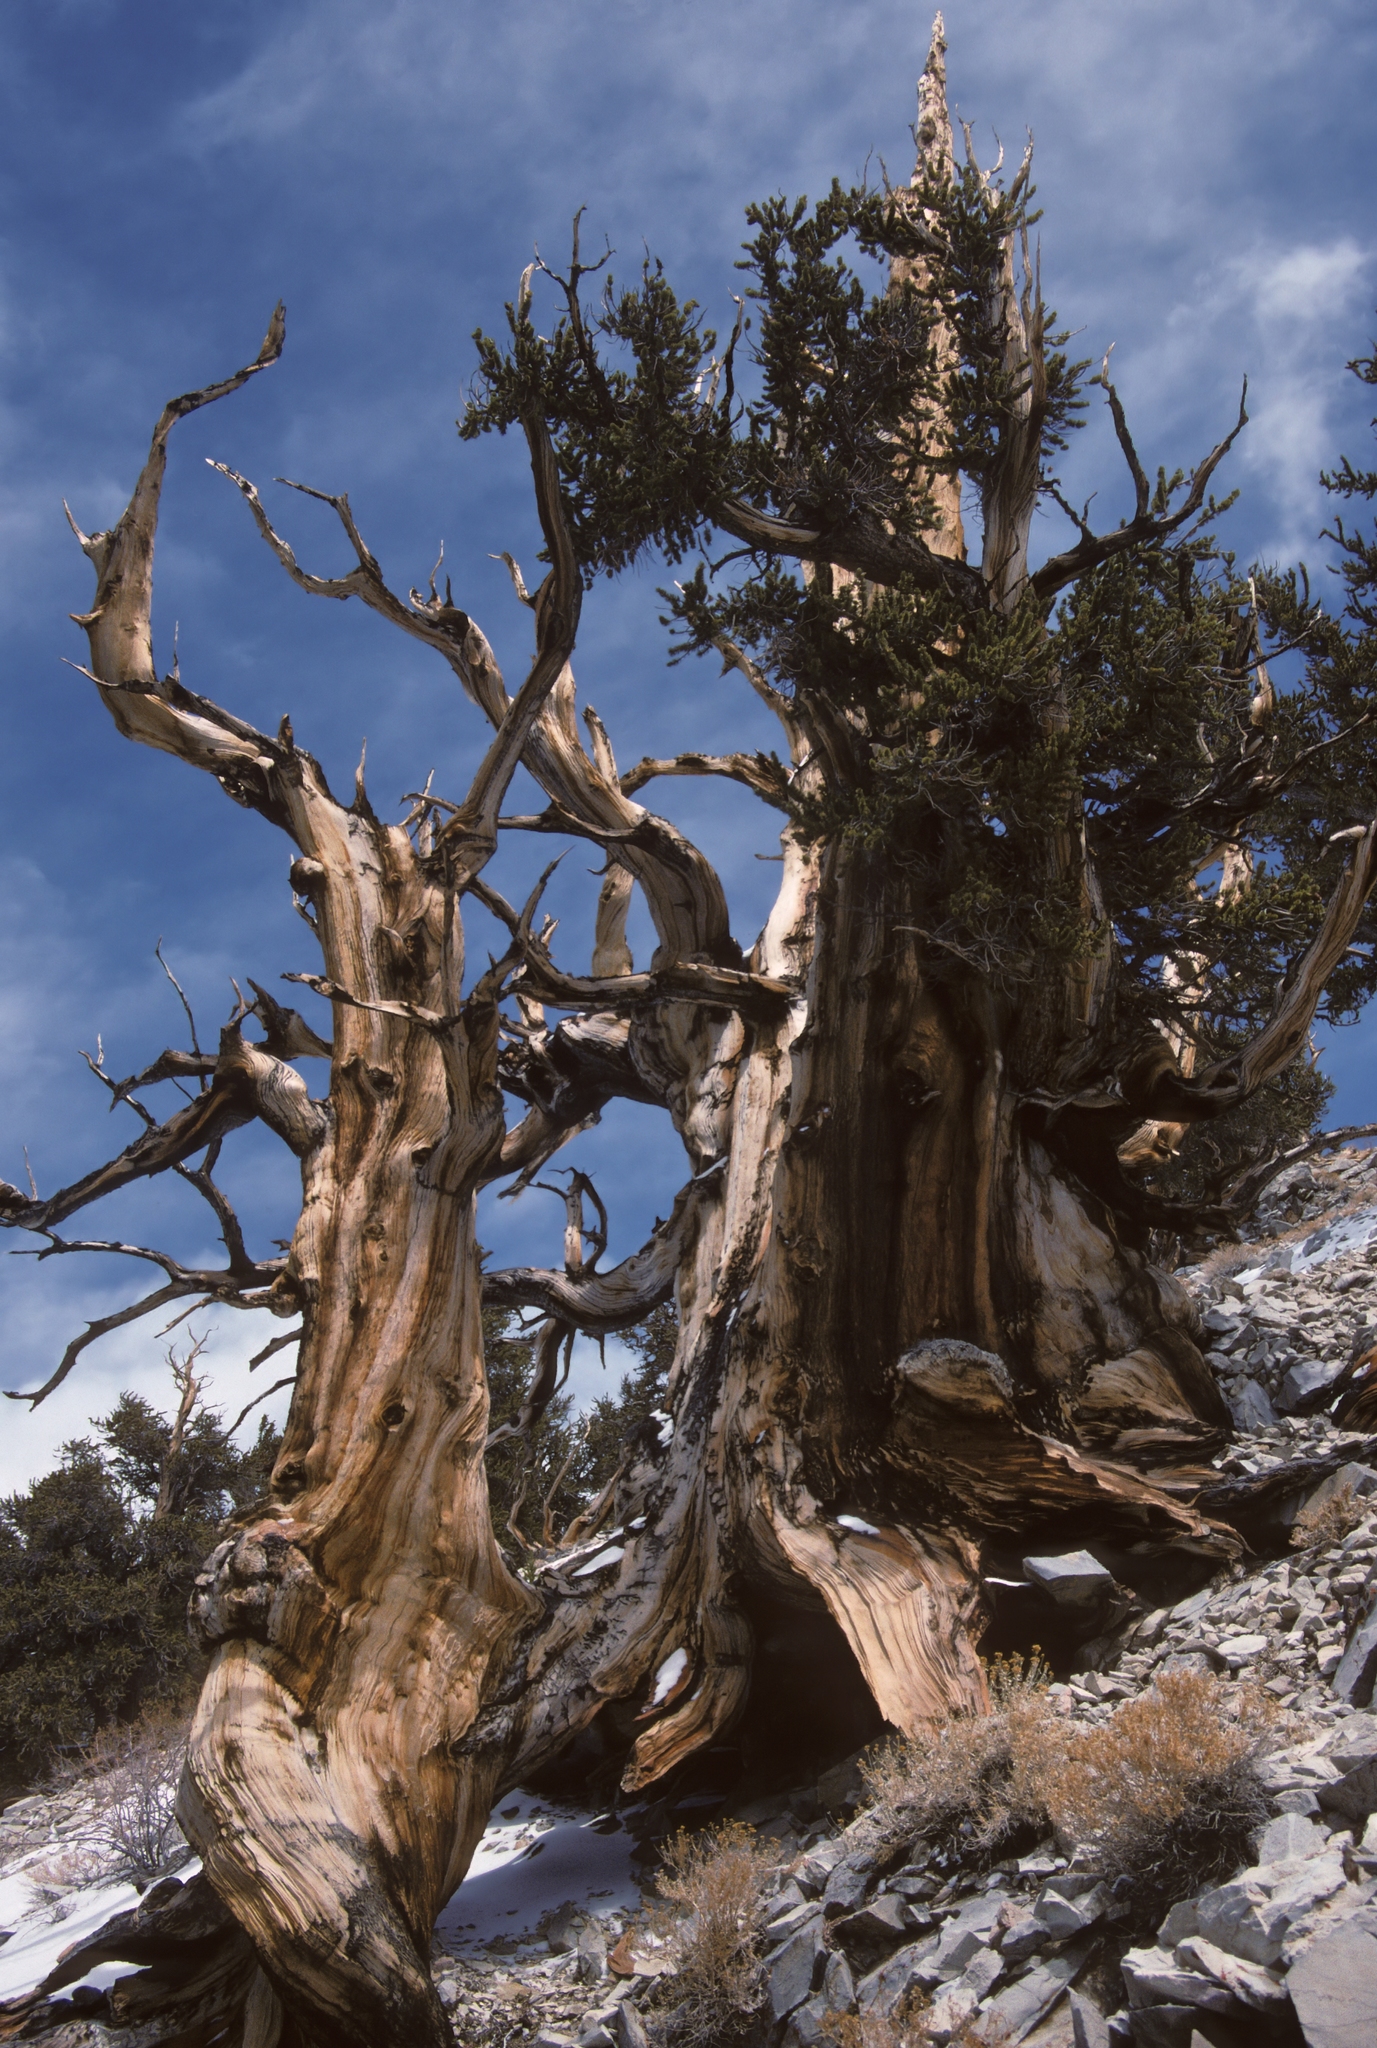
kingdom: Plantae
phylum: Tracheophyta
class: Pinopsida
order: Pinales
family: Pinaceae
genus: Pinus
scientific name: Pinus longaeva
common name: Intermountain bristlecone pine
